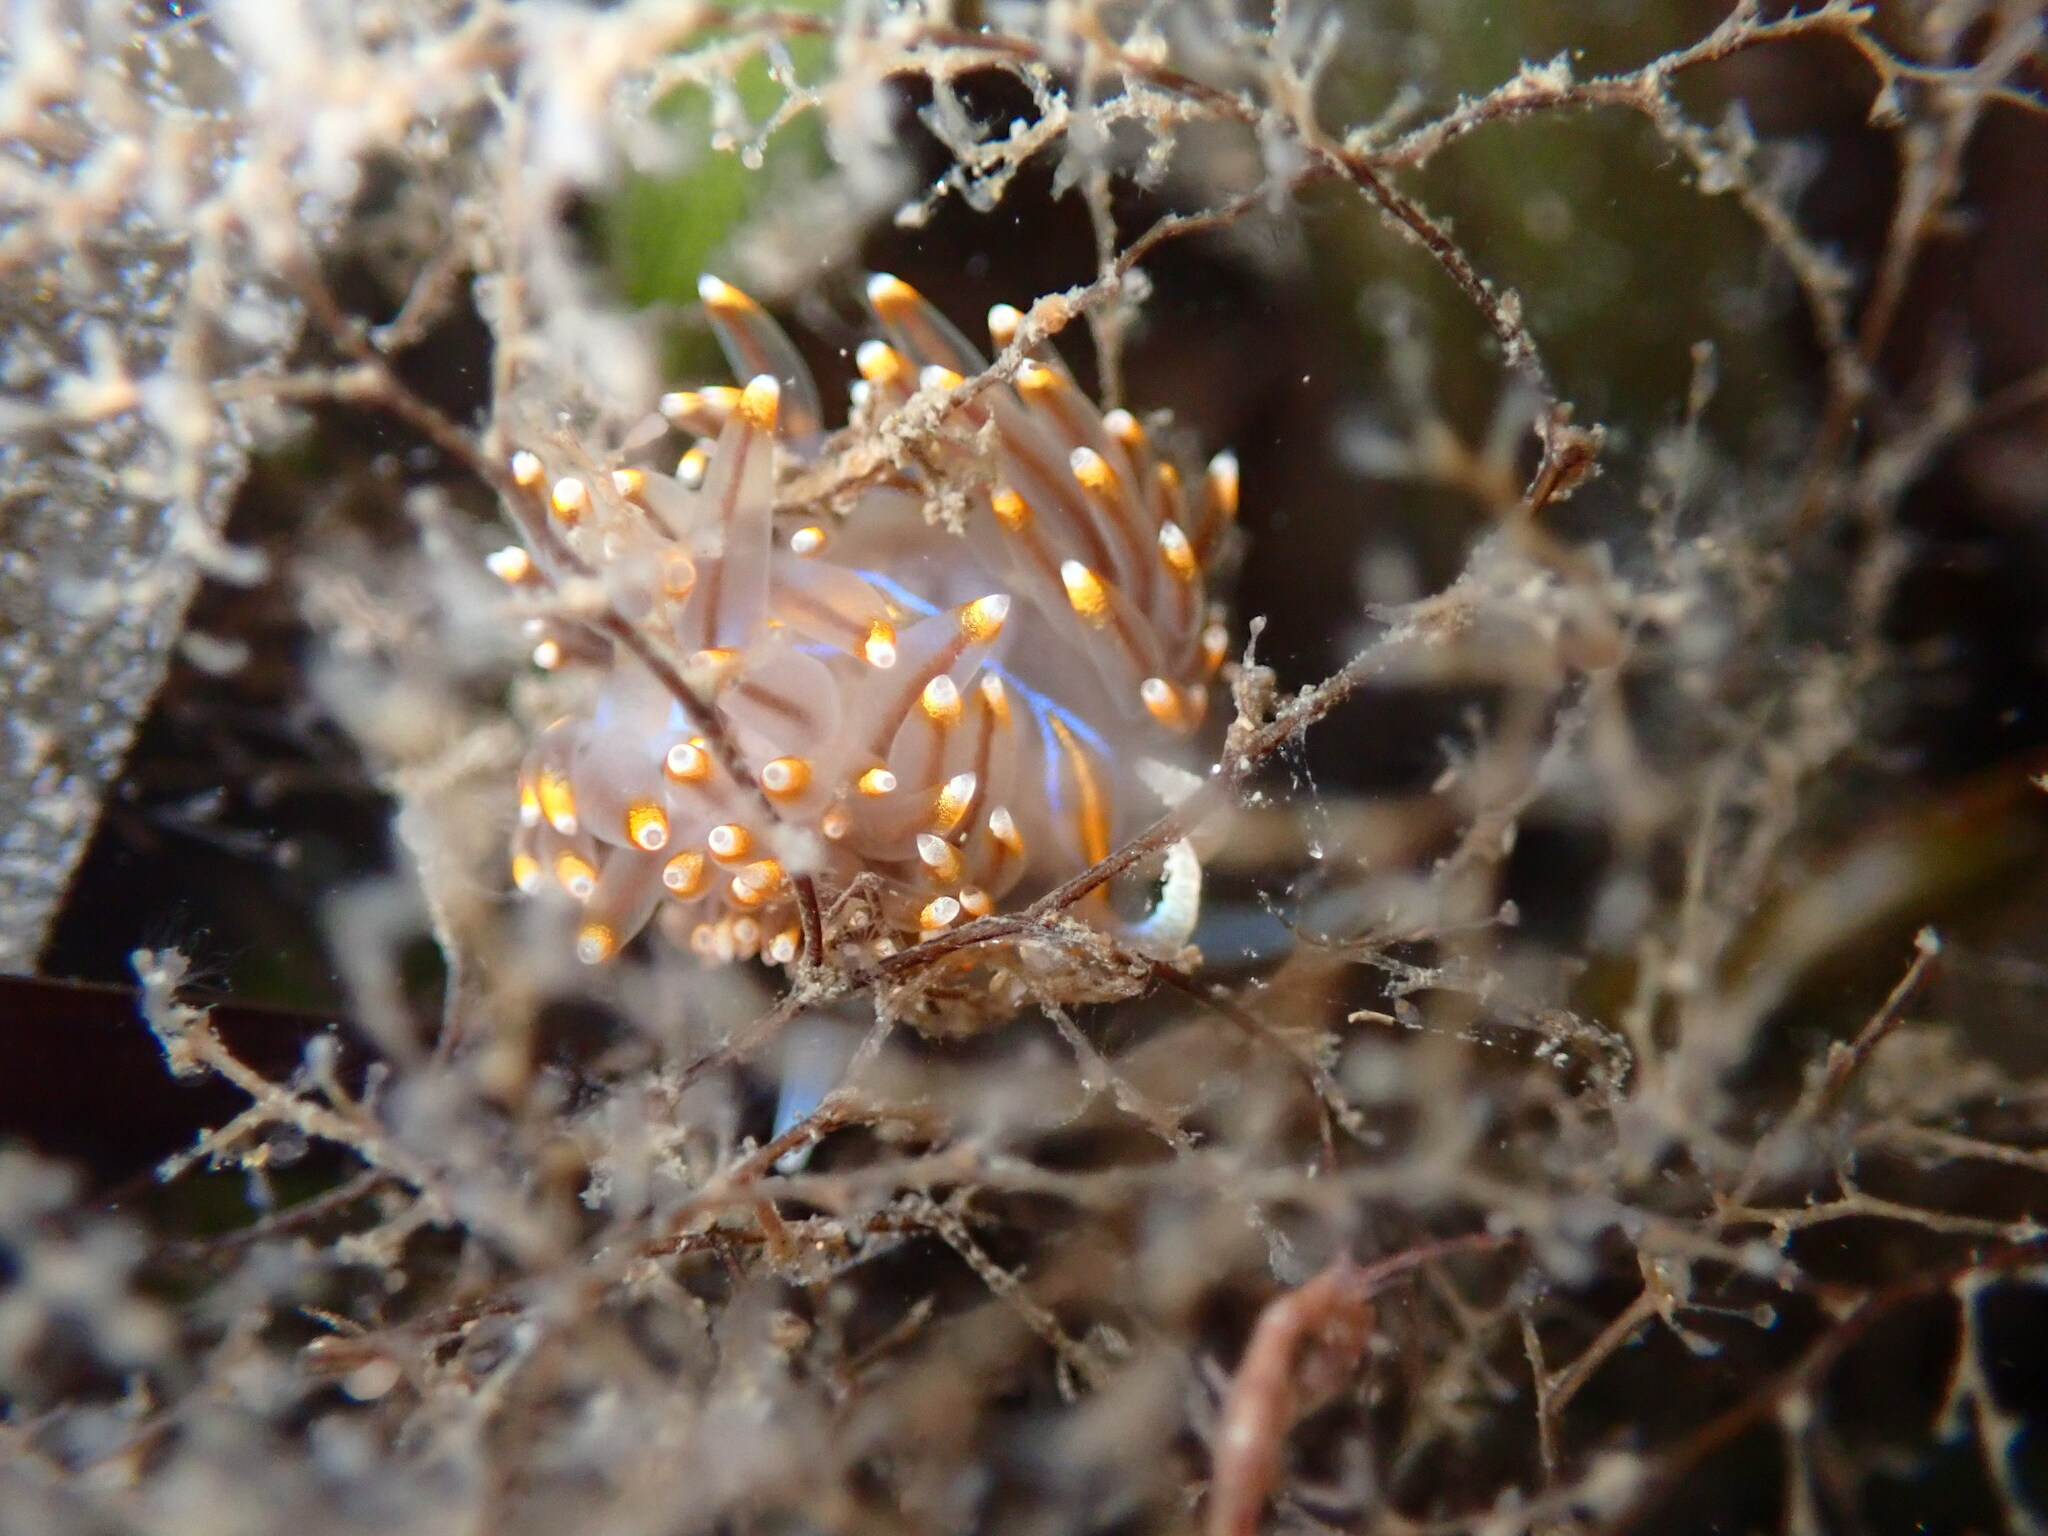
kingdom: Animalia
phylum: Mollusca
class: Gastropoda
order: Nudibranchia
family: Myrrhinidae
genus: Hermissenda
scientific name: Hermissenda opalescens
